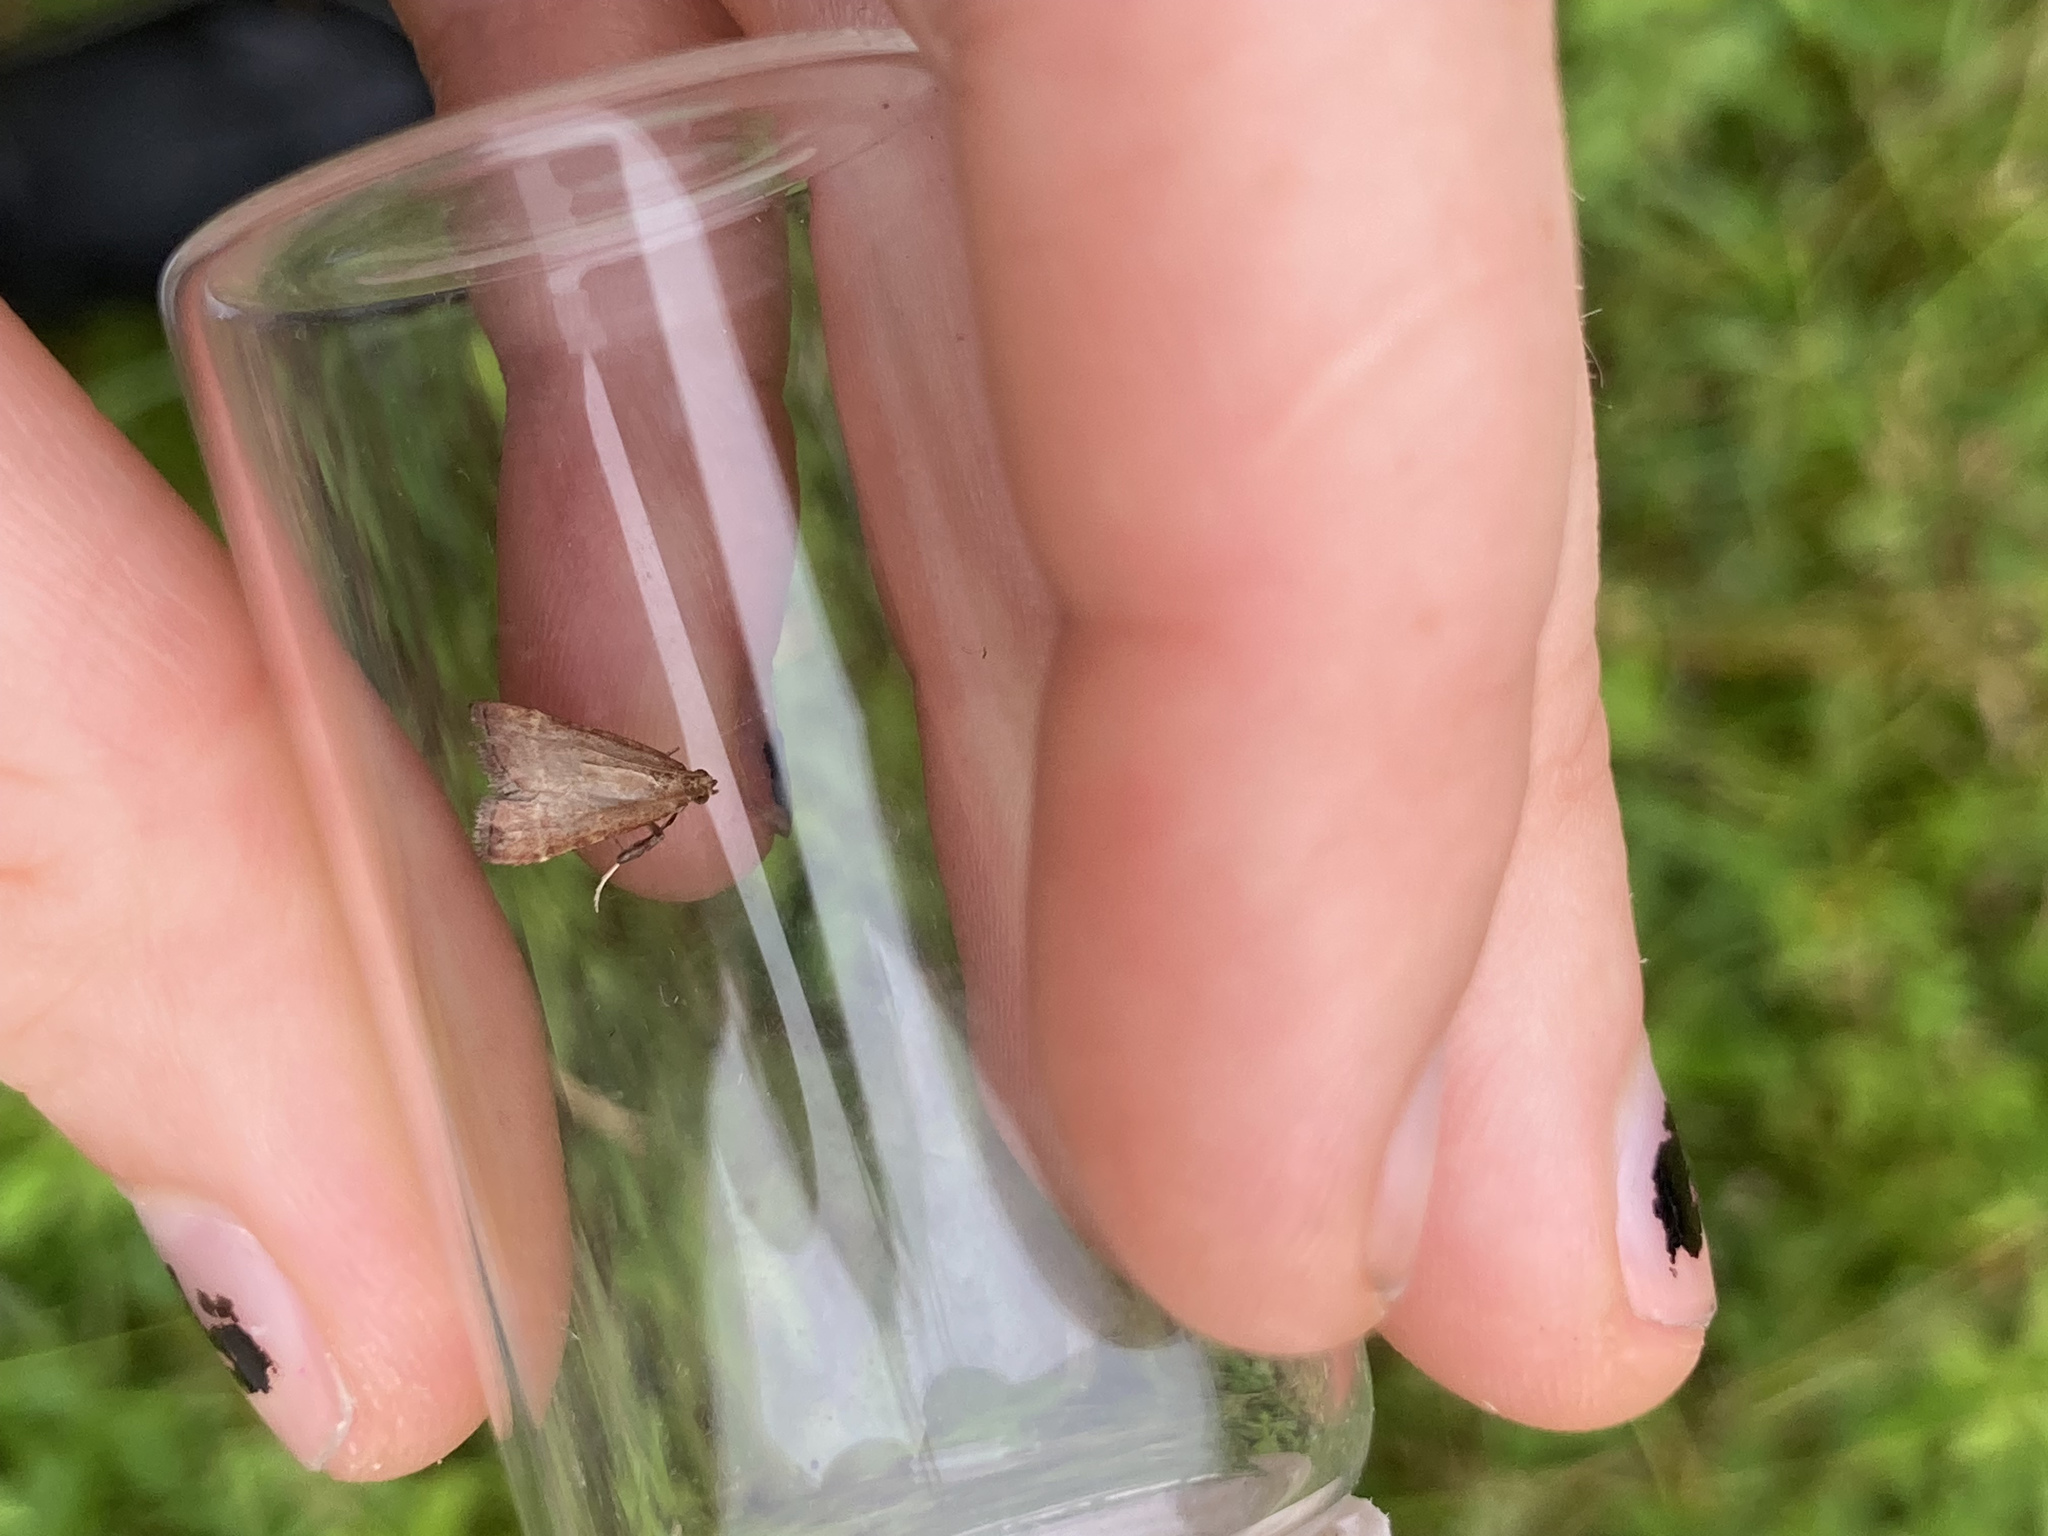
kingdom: Animalia
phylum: Arthropoda
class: Insecta
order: Lepidoptera
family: Pyralidae
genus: Arta
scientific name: Arta statalis
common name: Posturing arta moth
